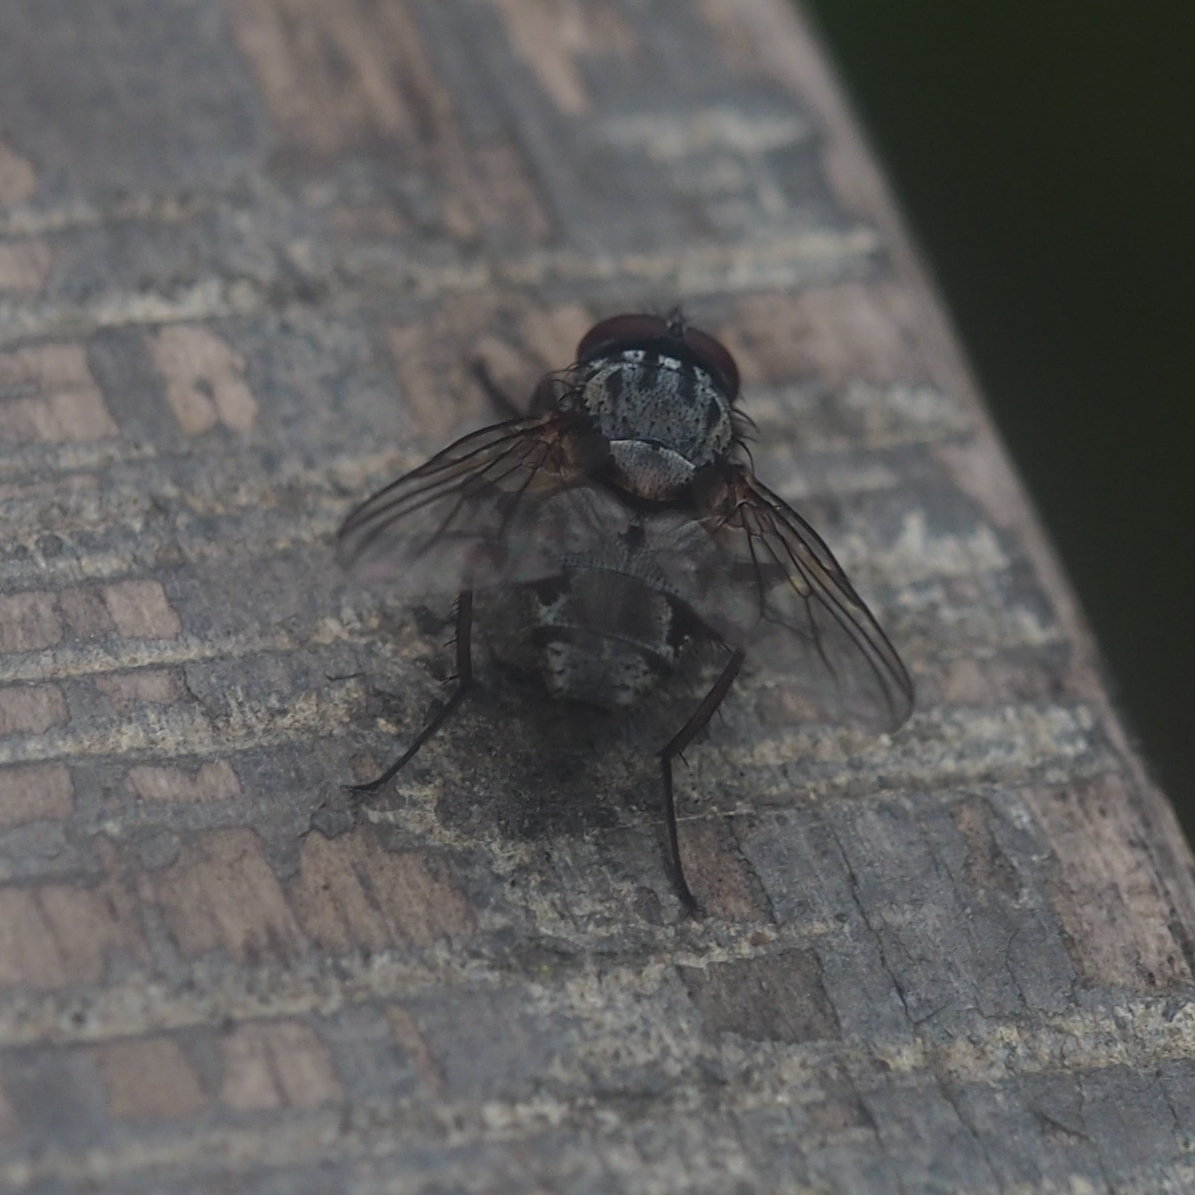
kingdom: Animalia
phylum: Arthropoda
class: Insecta
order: Diptera
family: Muscidae
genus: Muscina
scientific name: Muscina stabulans
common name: False stable fly
